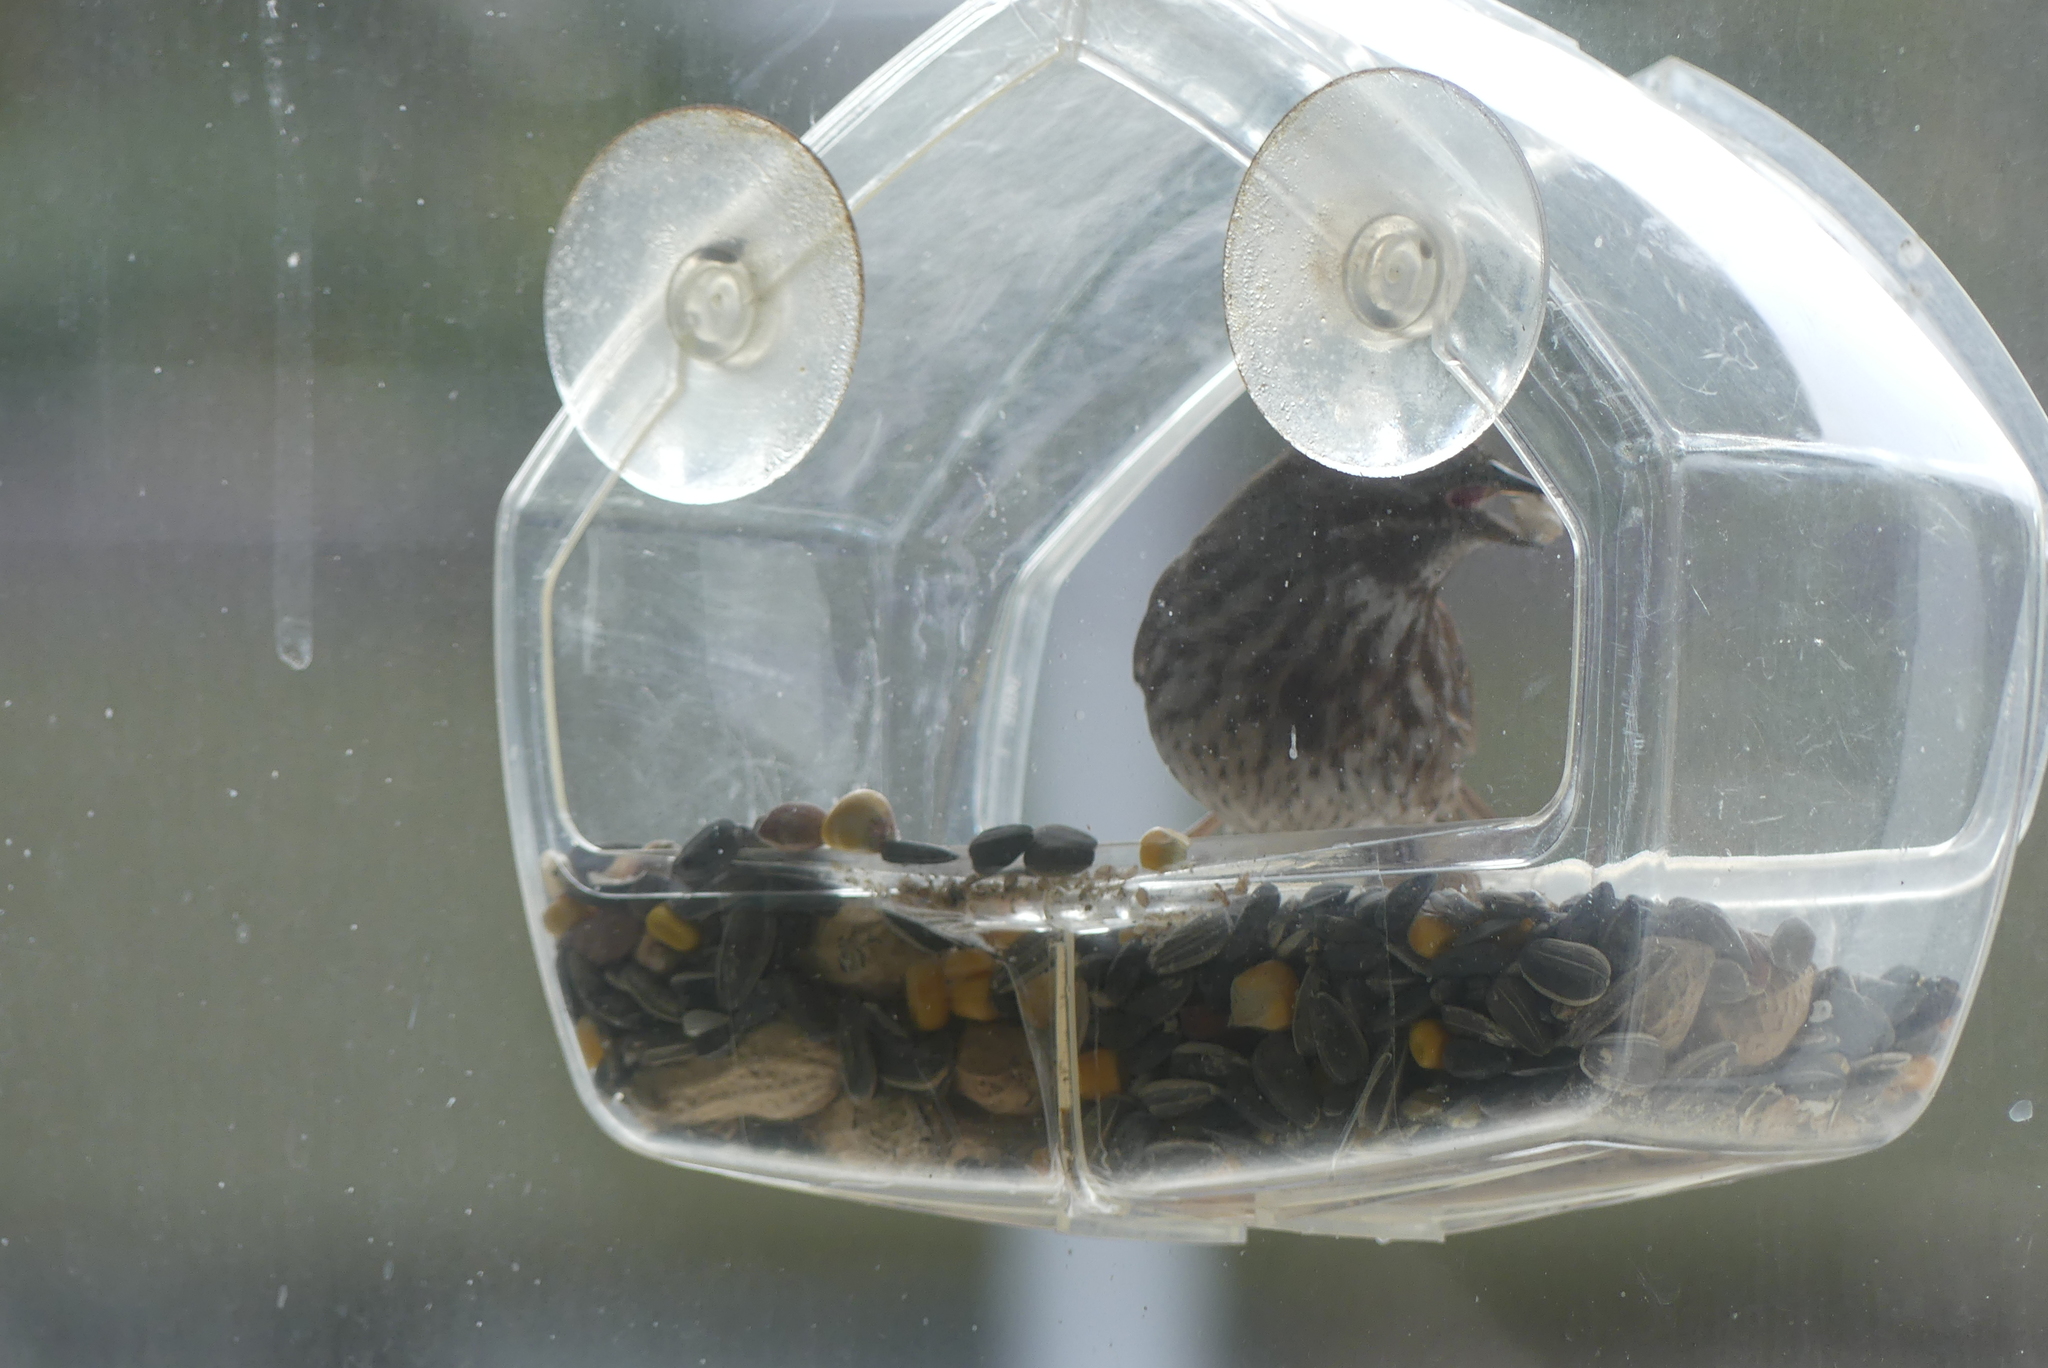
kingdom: Animalia
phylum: Chordata
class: Aves
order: Passeriformes
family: Passerellidae
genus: Melospiza
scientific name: Melospiza melodia
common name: Song sparrow
